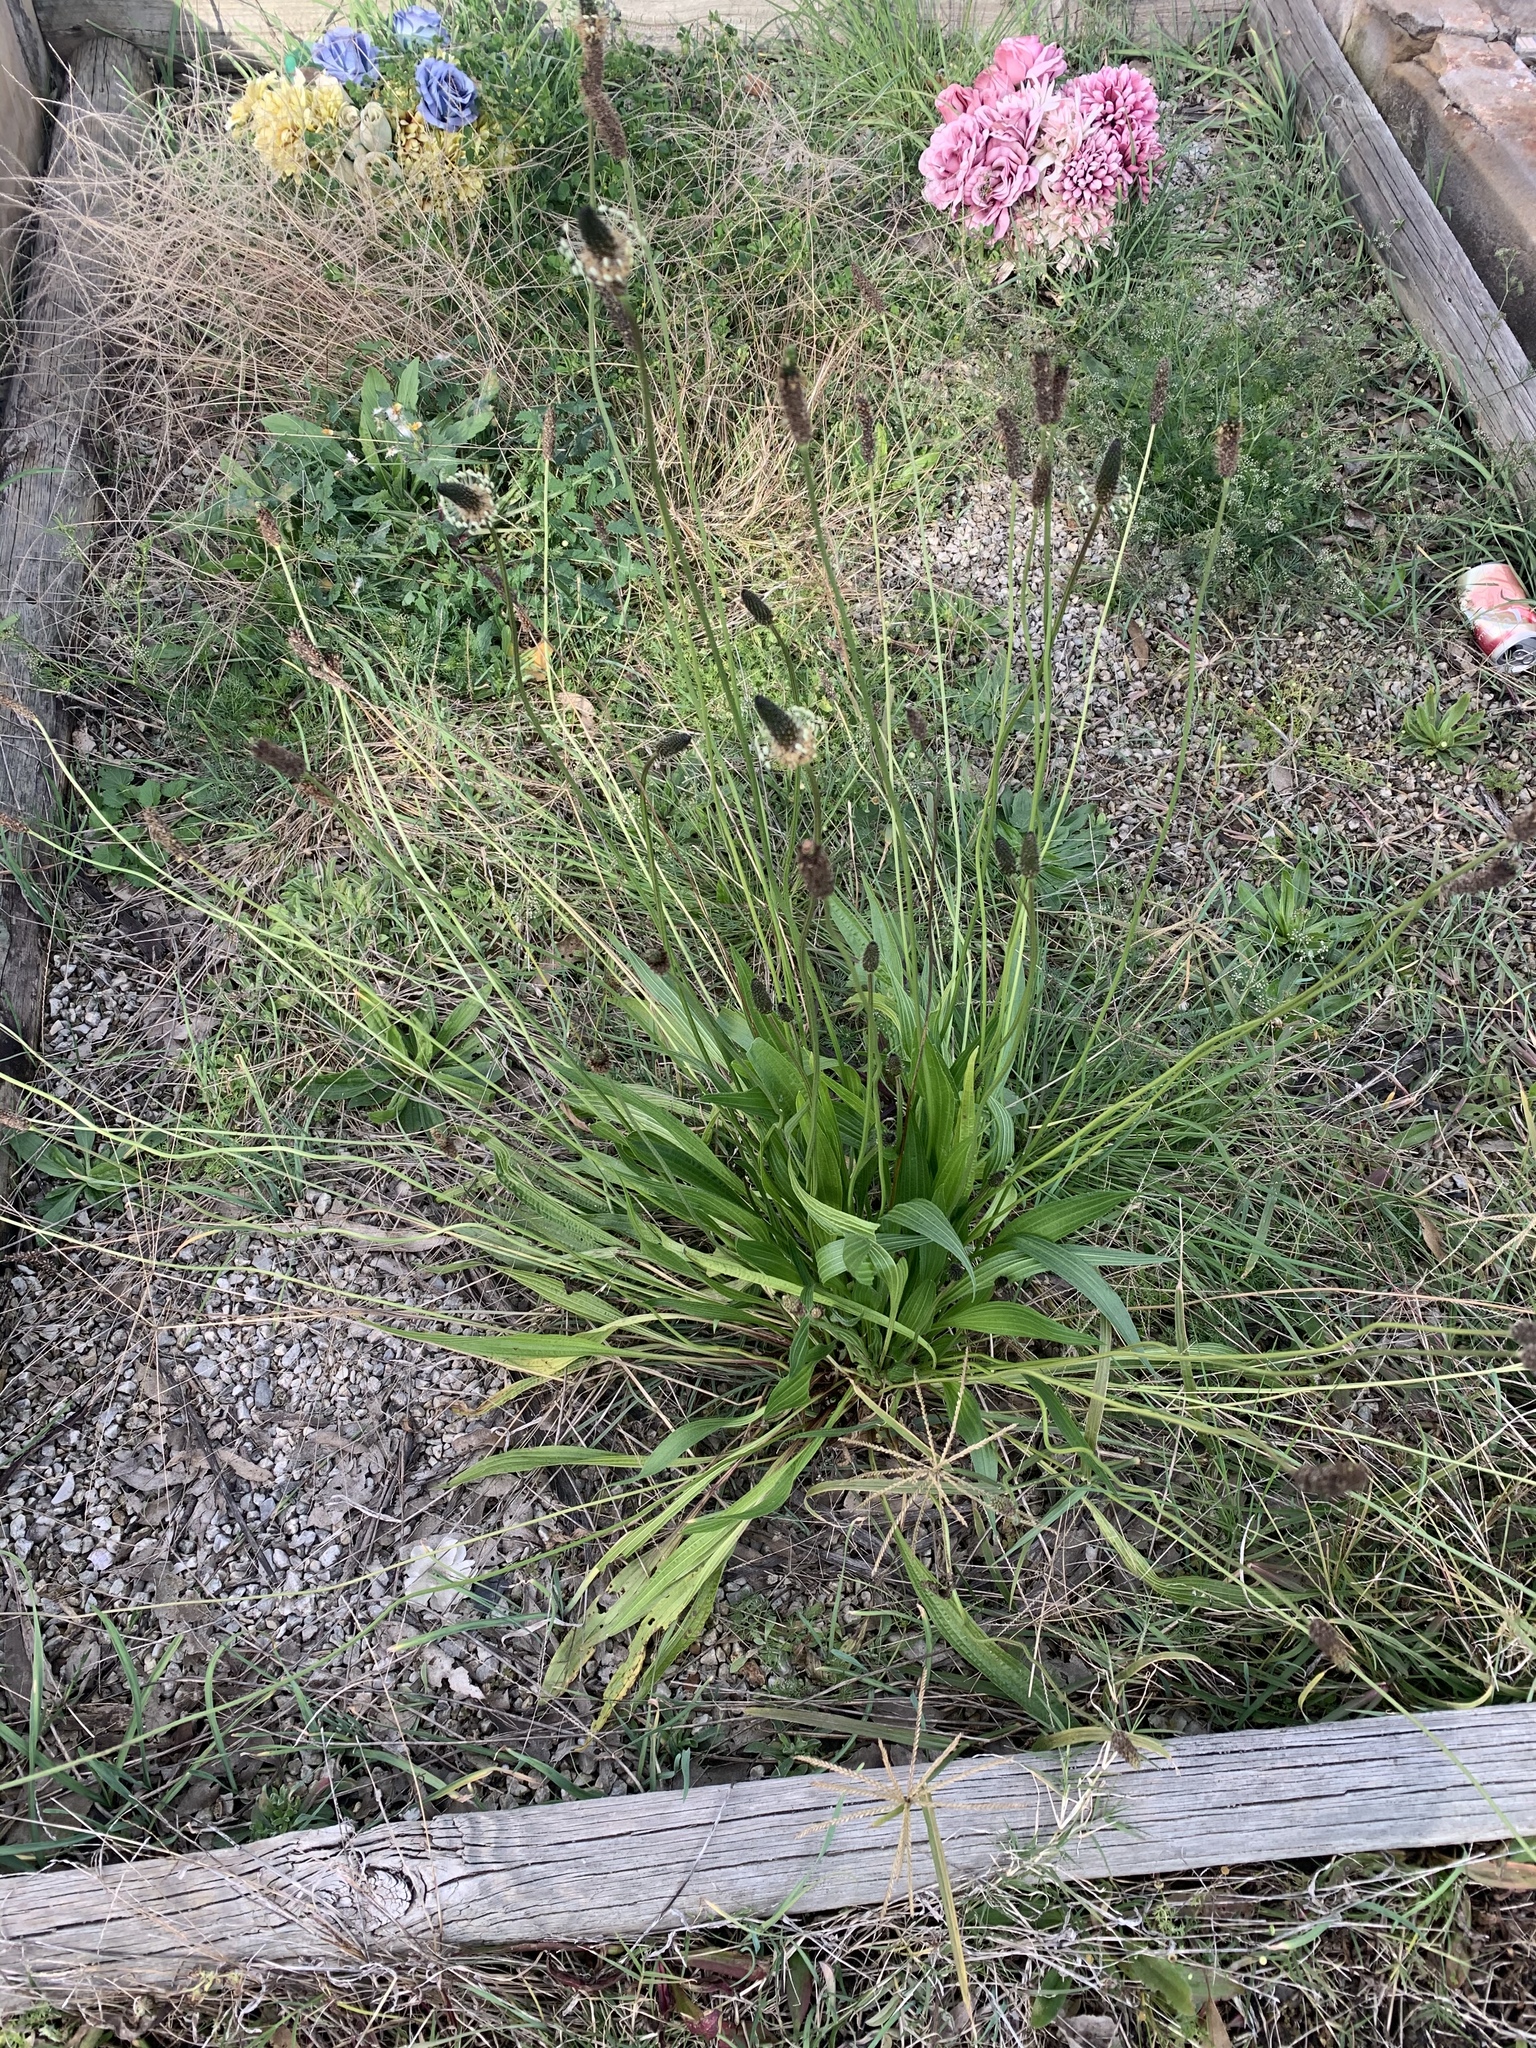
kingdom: Plantae
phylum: Tracheophyta
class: Magnoliopsida
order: Lamiales
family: Plantaginaceae
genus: Plantago
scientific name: Plantago lanceolata
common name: Ribwort plantain
